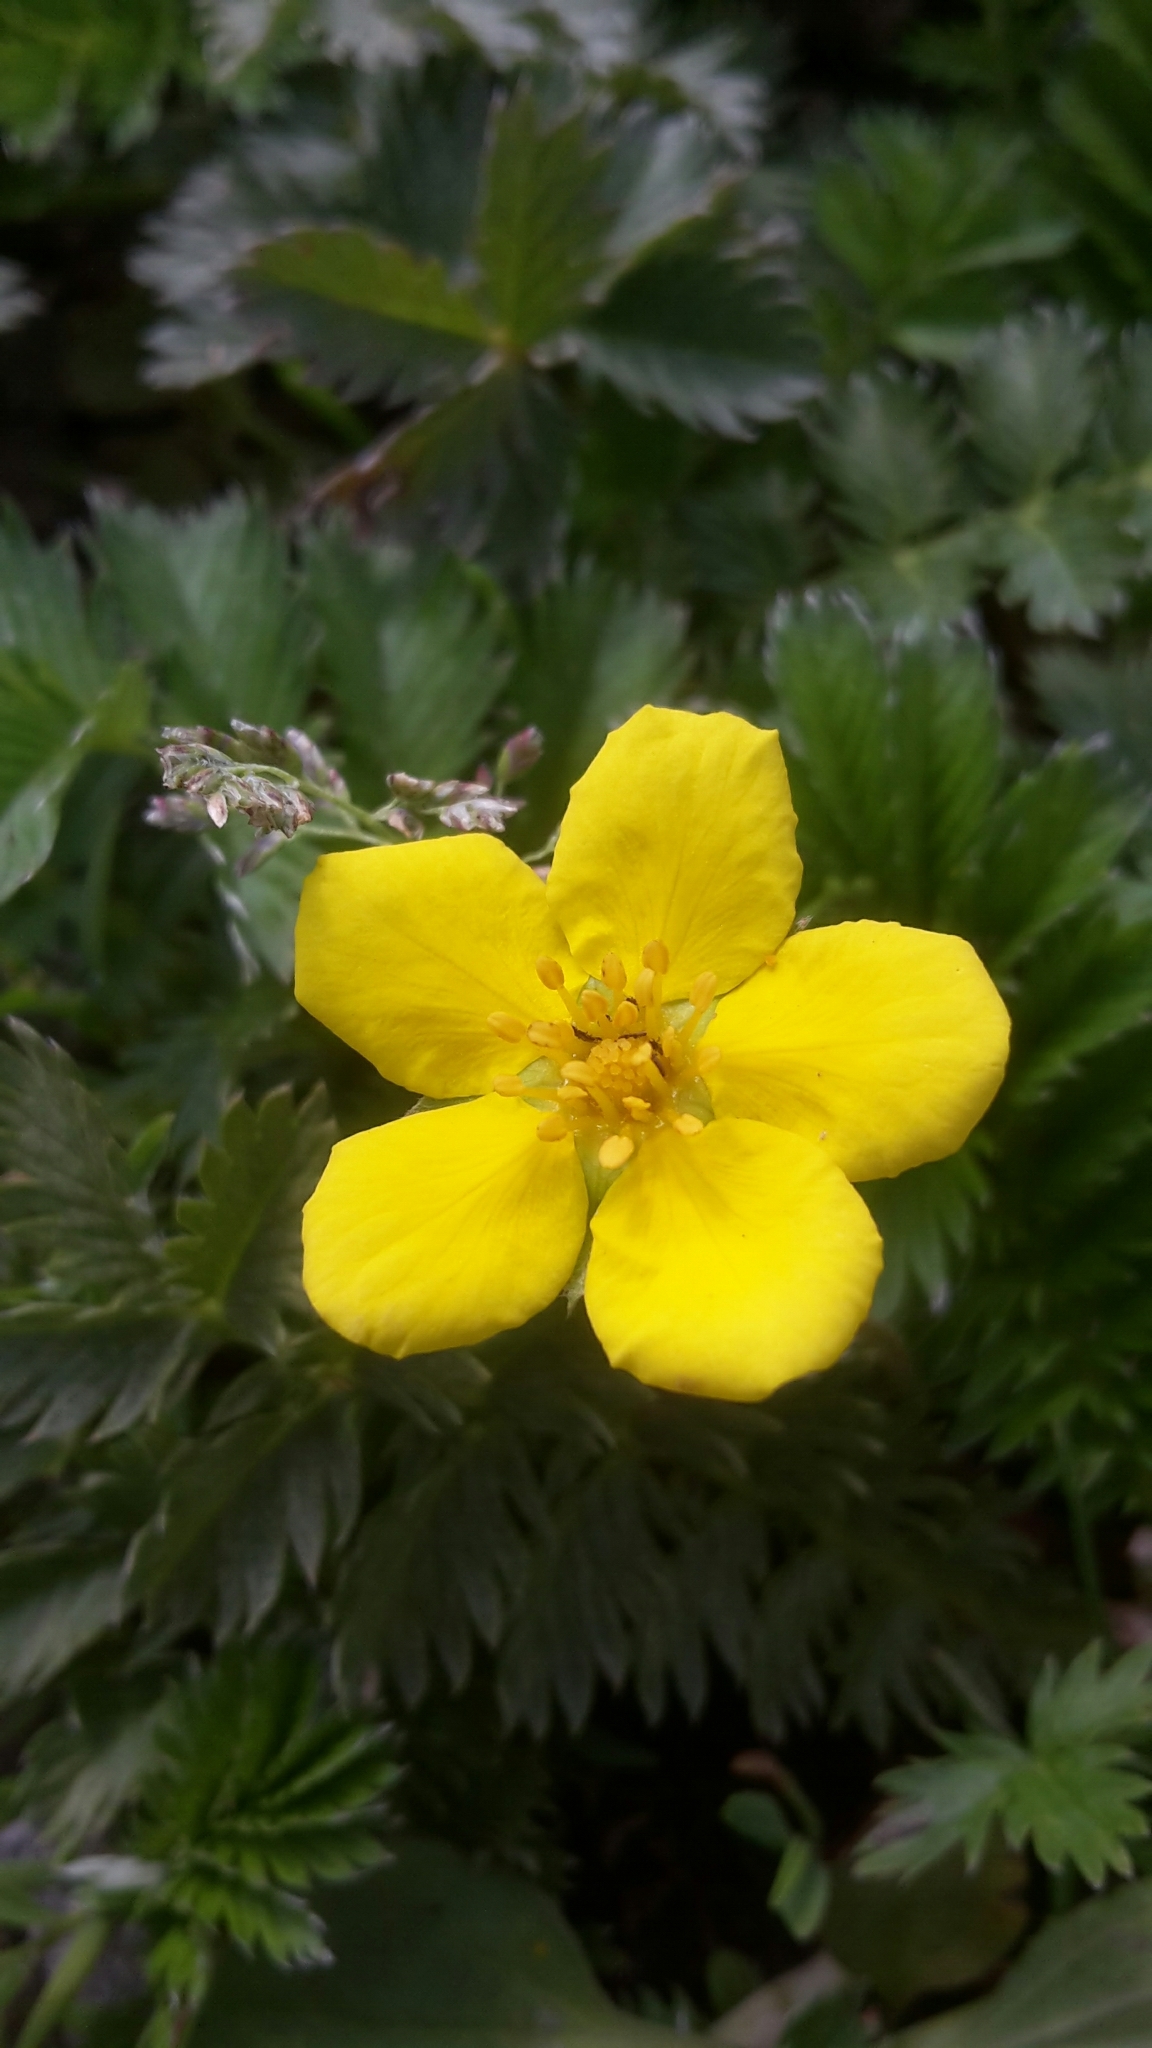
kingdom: Plantae
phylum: Tracheophyta
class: Magnoliopsida
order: Rosales
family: Rosaceae
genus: Argentina
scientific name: Argentina anserina
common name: Common silverweed
